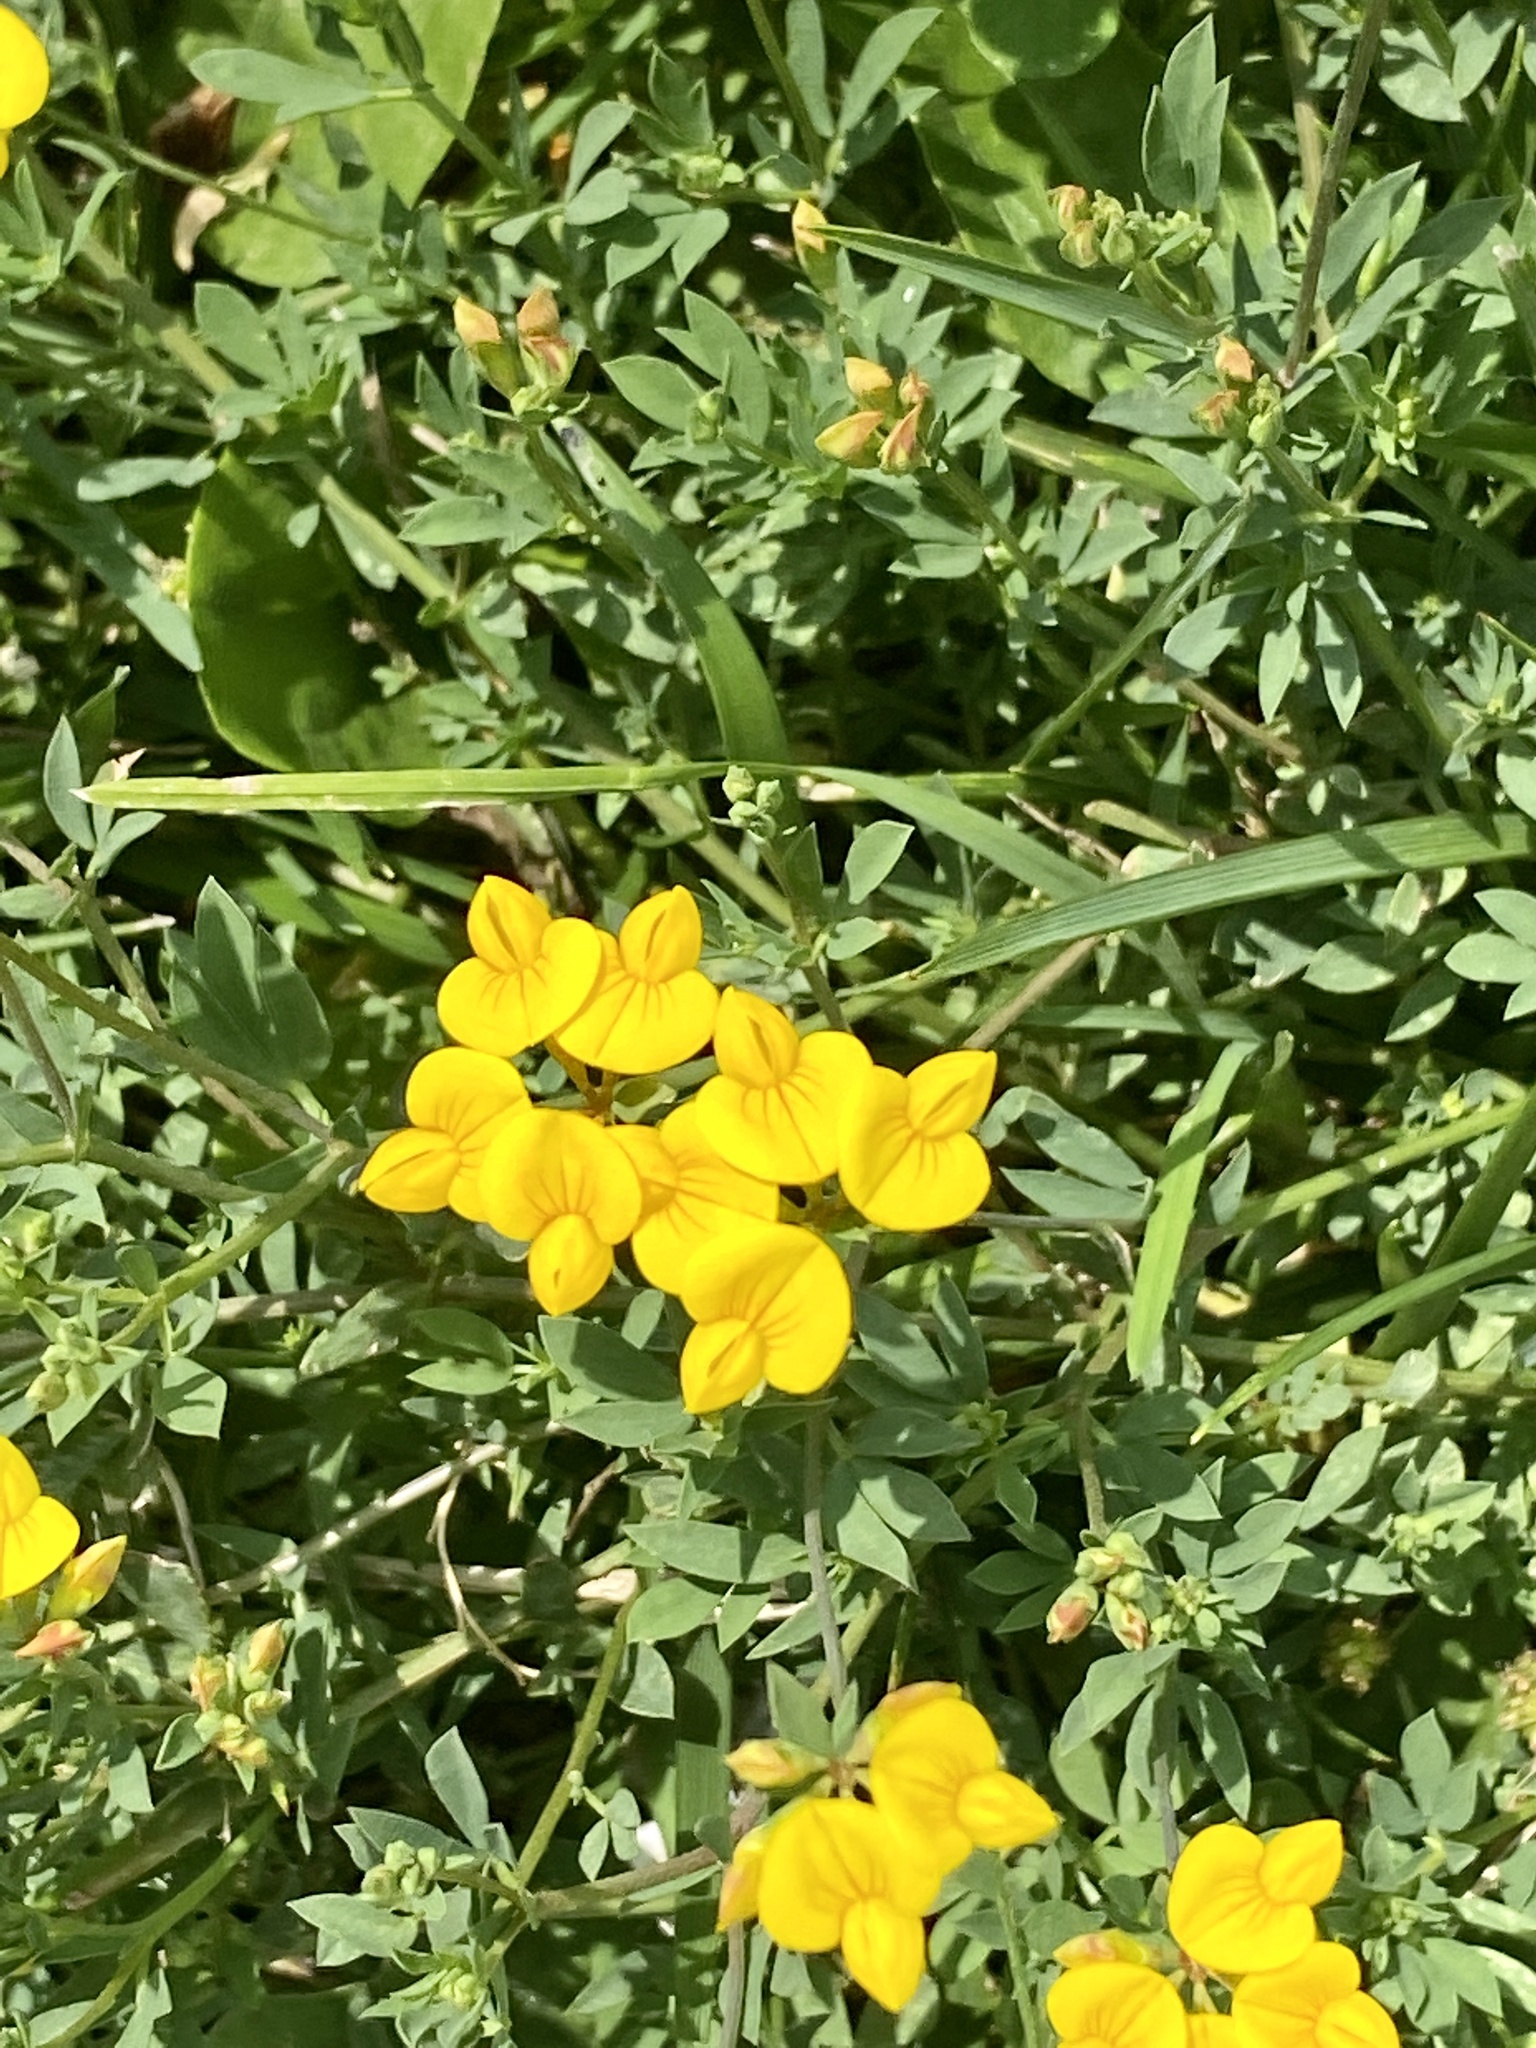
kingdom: Plantae
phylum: Tracheophyta
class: Magnoliopsida
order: Fabales
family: Fabaceae
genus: Lotus
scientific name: Lotus corniculatus
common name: Common bird's-foot-trefoil
